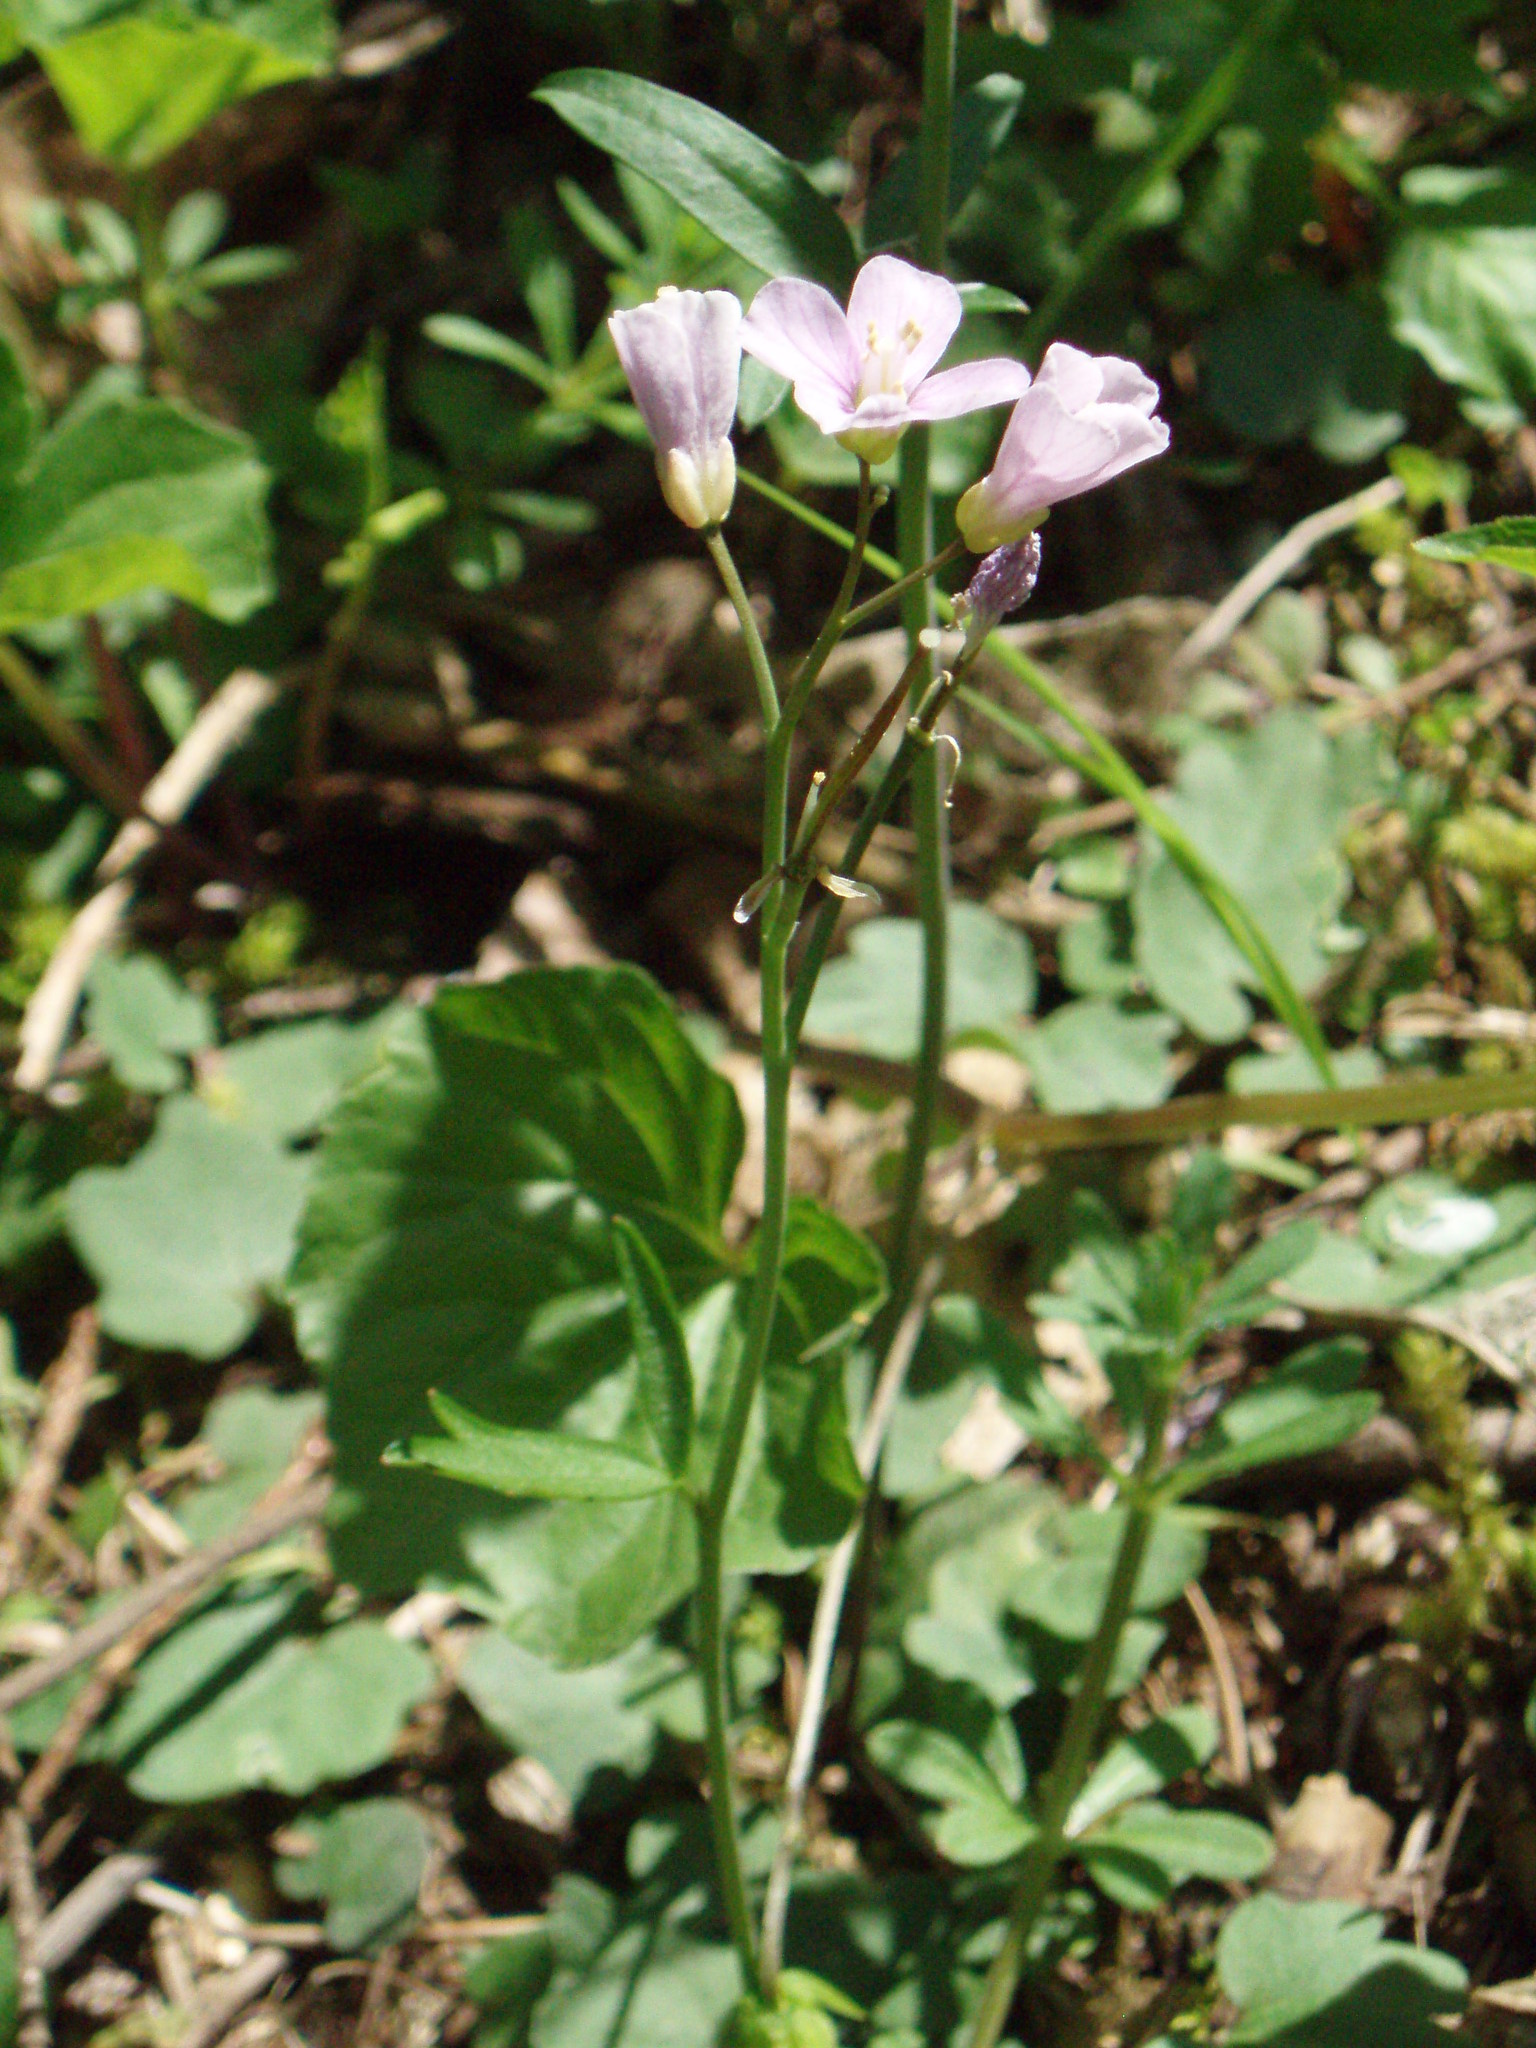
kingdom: Plantae
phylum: Tracheophyta
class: Magnoliopsida
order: Brassicales
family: Brassicaceae
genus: Cardamine
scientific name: Cardamine nuttallii
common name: Nuttall's toothwort
